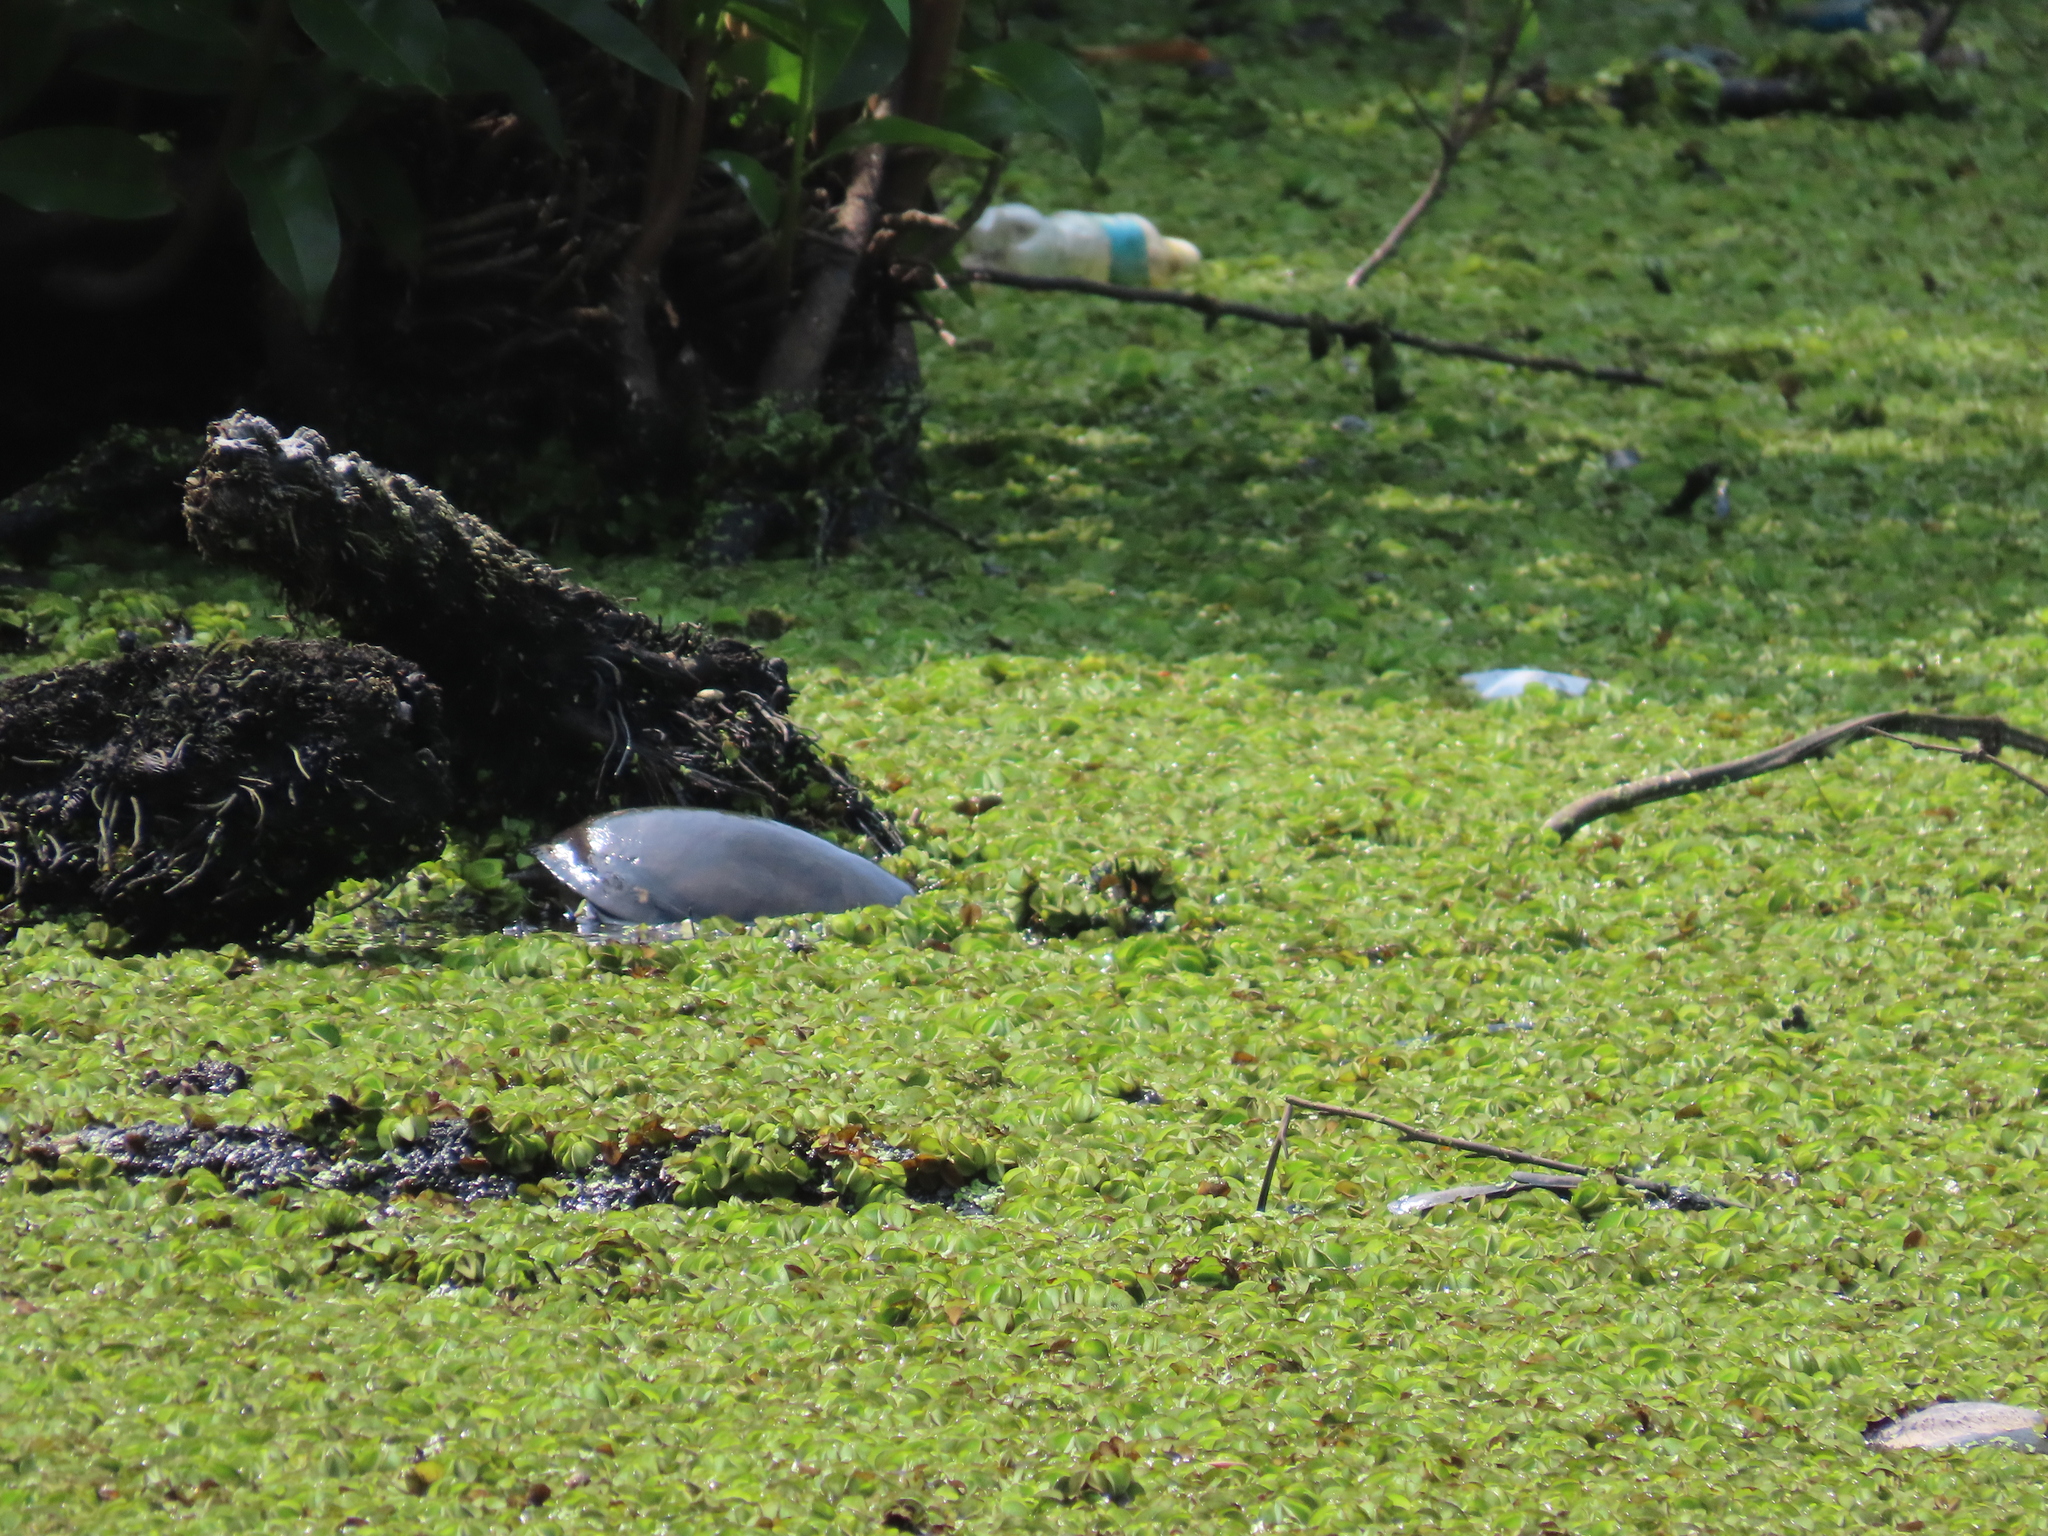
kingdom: Animalia
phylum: Chordata
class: Testudines
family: Trionychidae
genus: Lissemys
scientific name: Lissemys punctata
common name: Indian flap-shelled turtle
